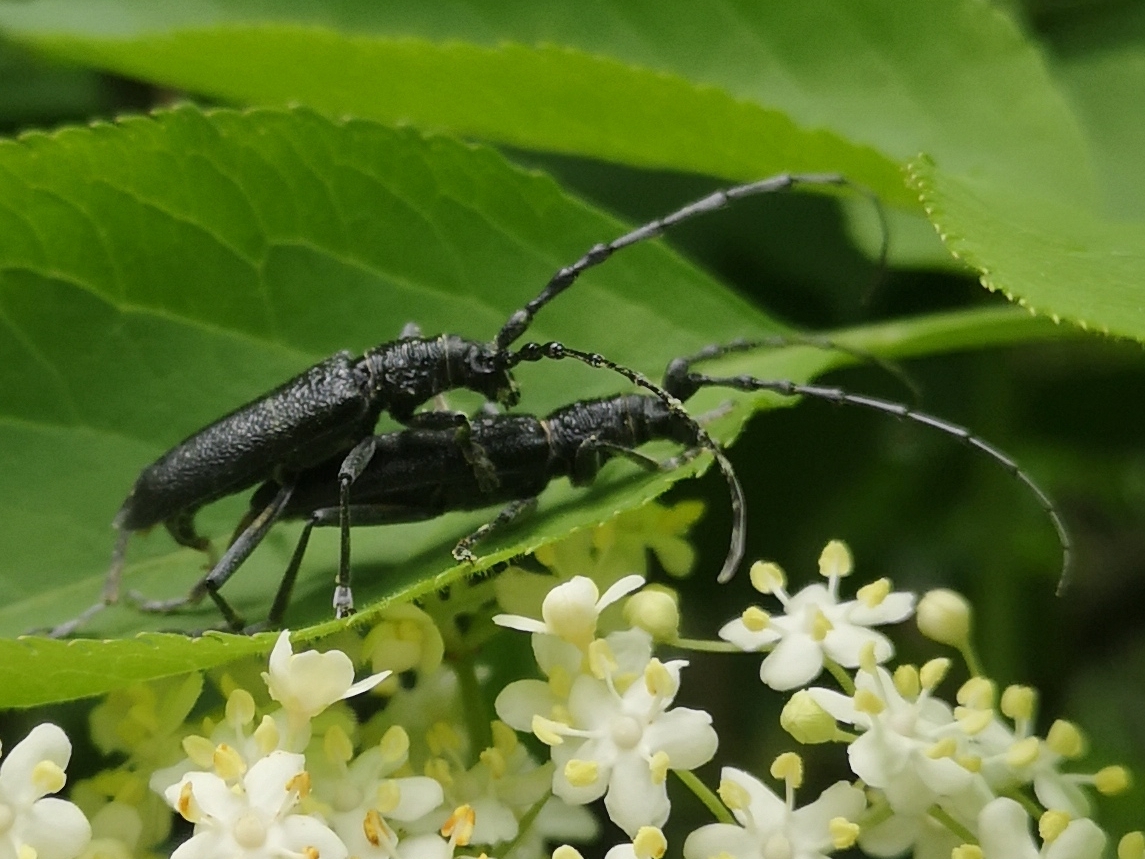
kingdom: Animalia
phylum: Arthropoda
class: Insecta
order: Coleoptera
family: Cerambycidae
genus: Cerambyx
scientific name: Cerambyx scopolii
